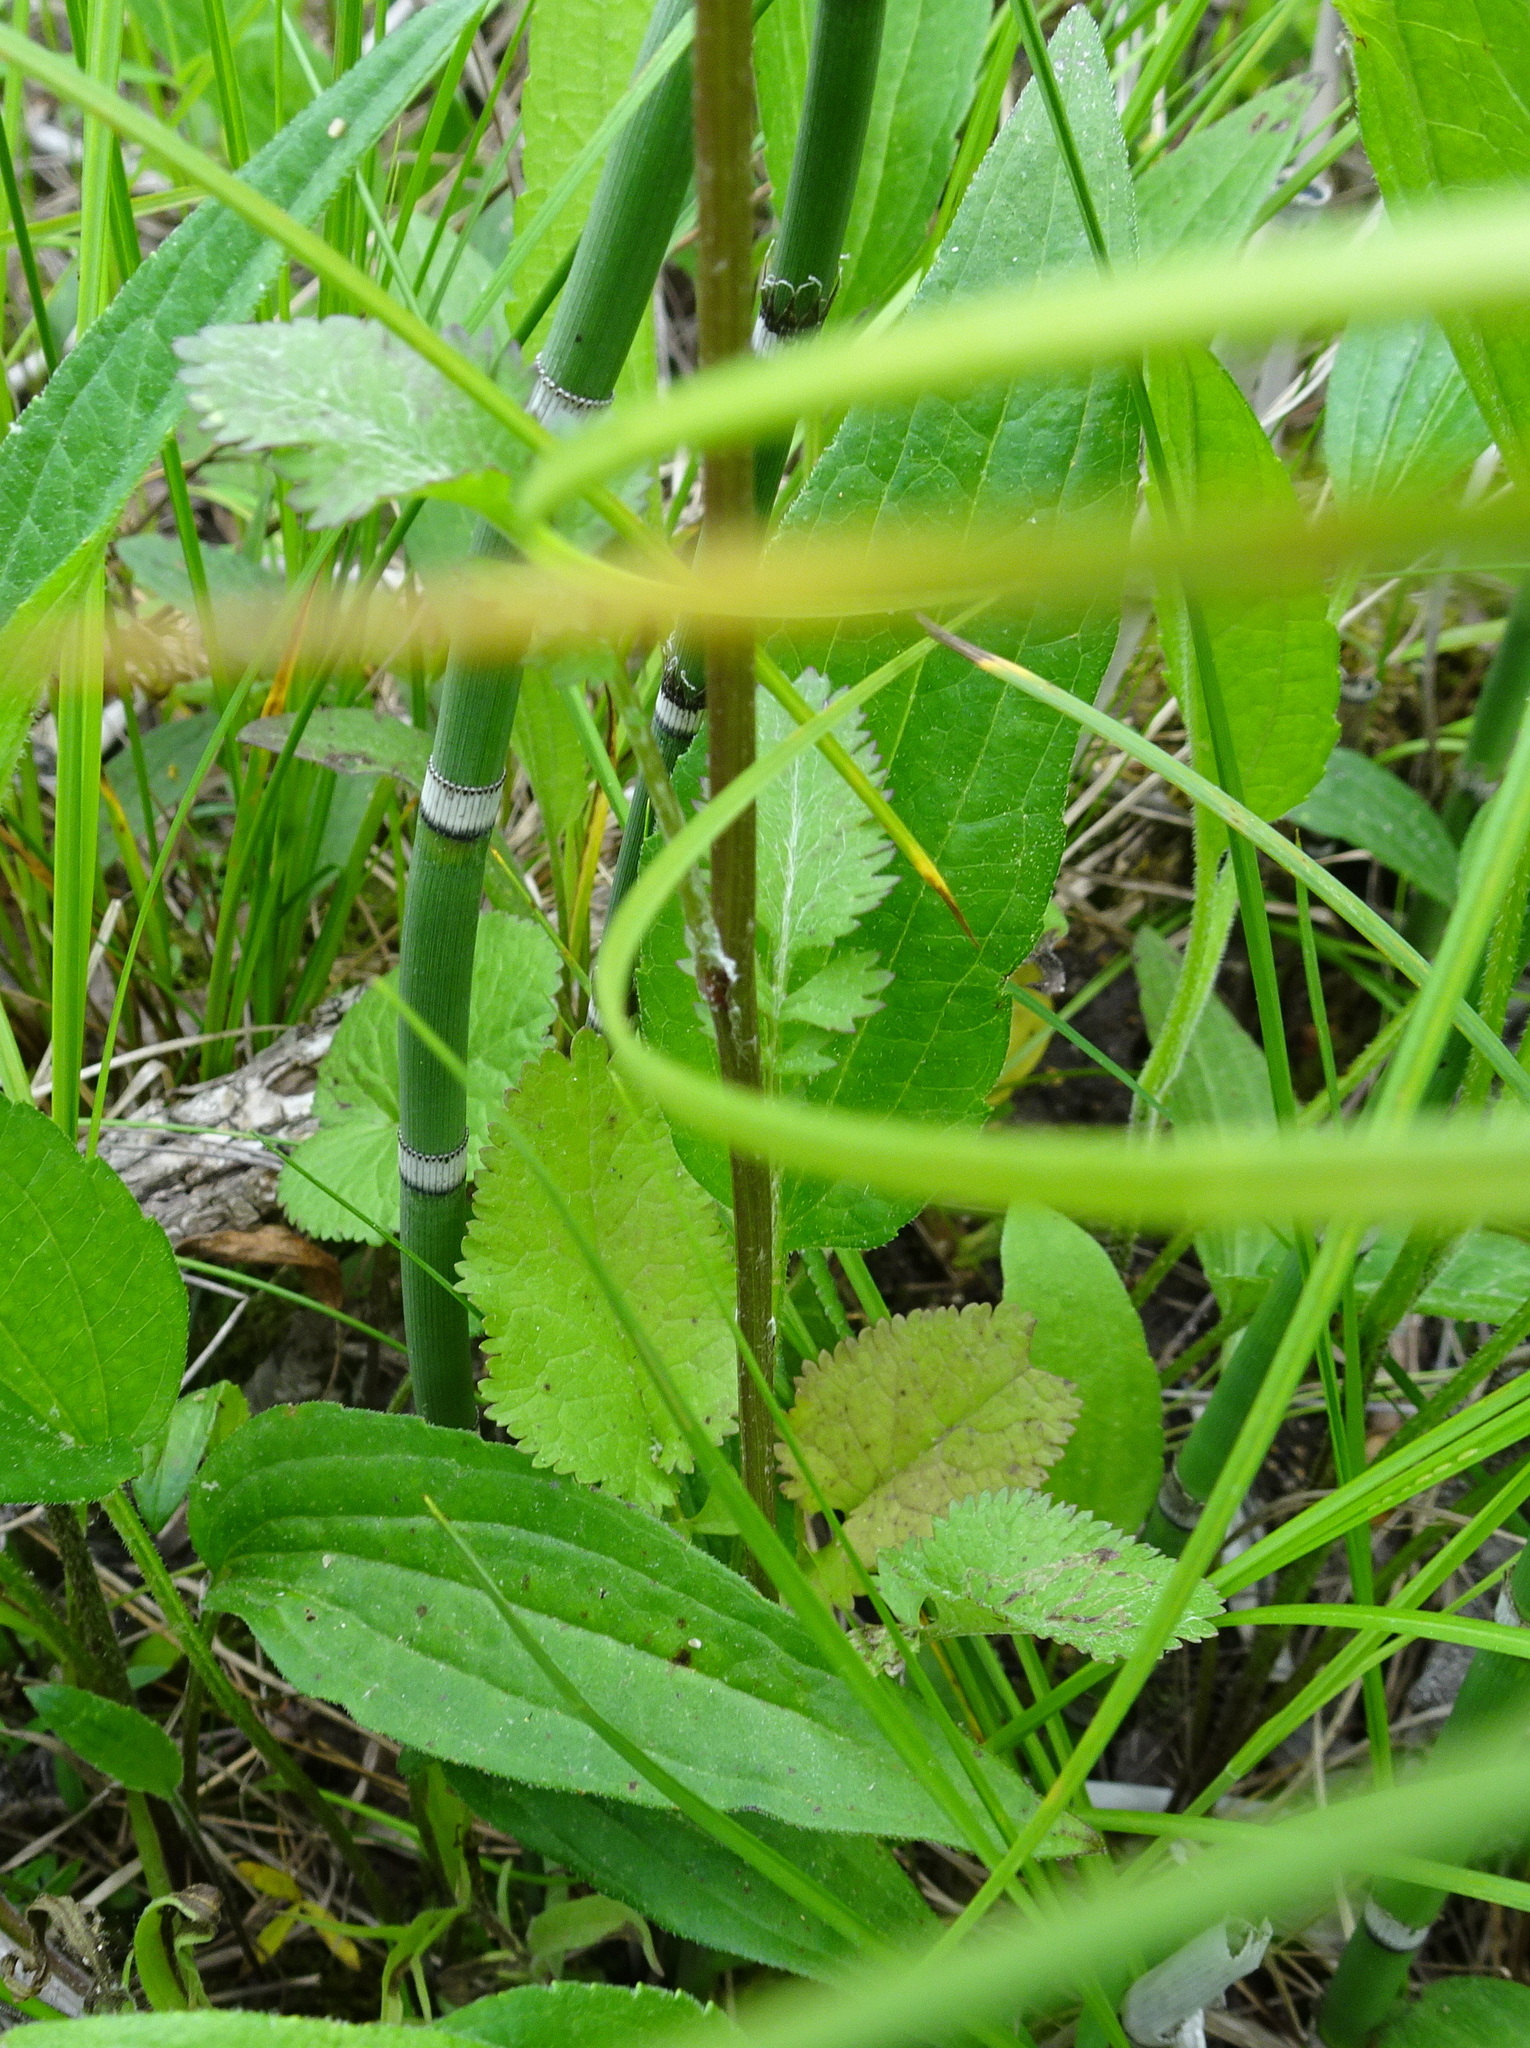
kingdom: Plantae
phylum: Tracheophyta
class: Magnoliopsida
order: Asterales
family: Asteraceae
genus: Packera
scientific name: Packera aurea
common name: Golden groundsel
